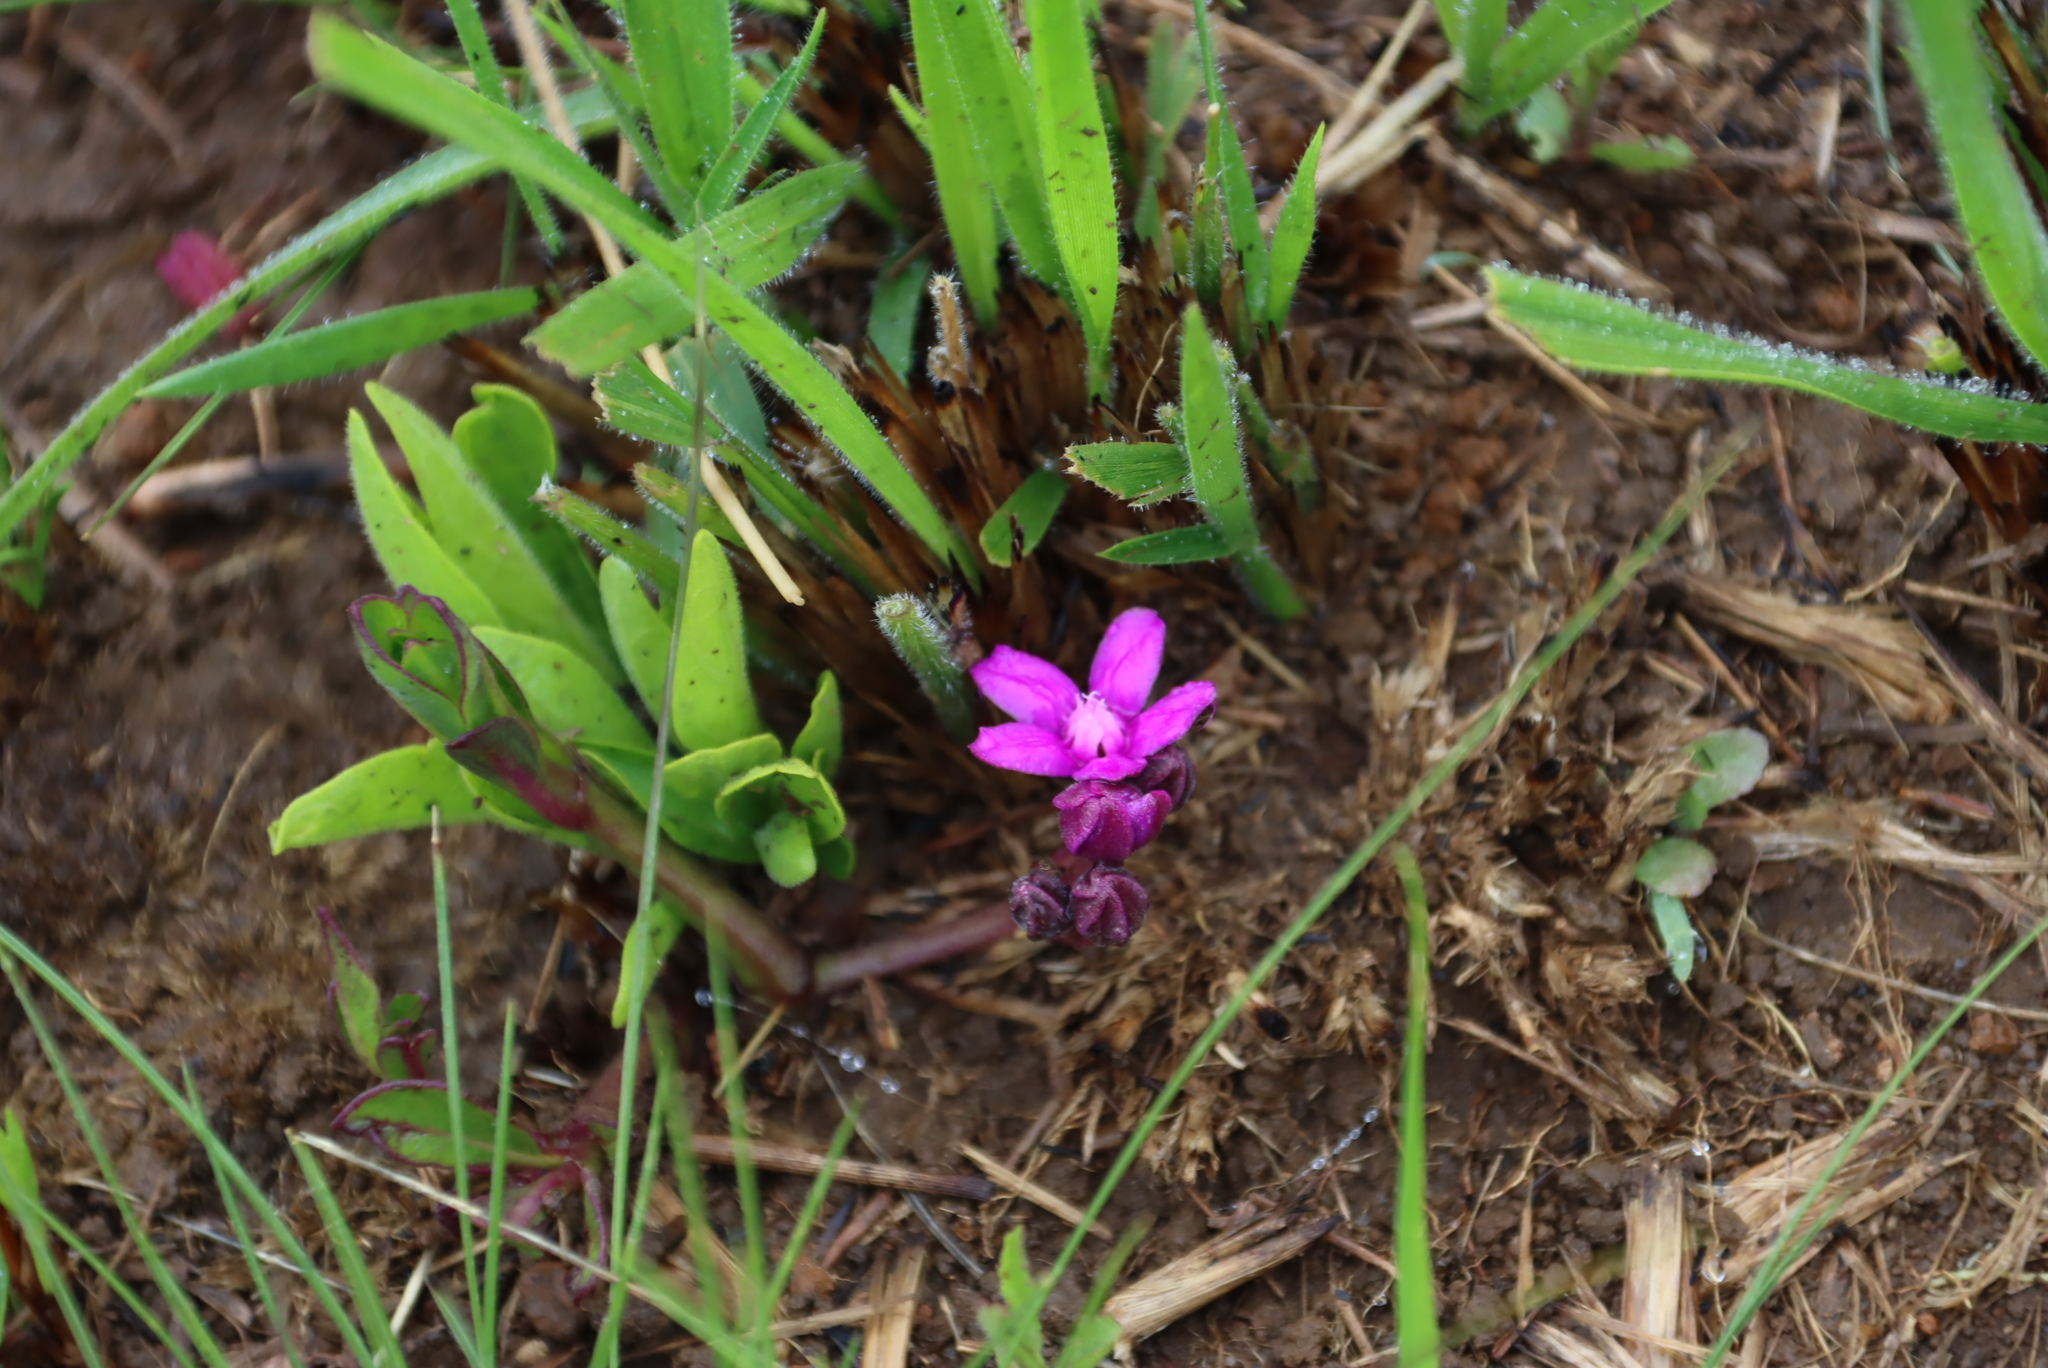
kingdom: Plantae
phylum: Tracheophyta
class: Magnoliopsida
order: Gentianales
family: Apocynaceae
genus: Raphionacme
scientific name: Raphionacme hirsuta
